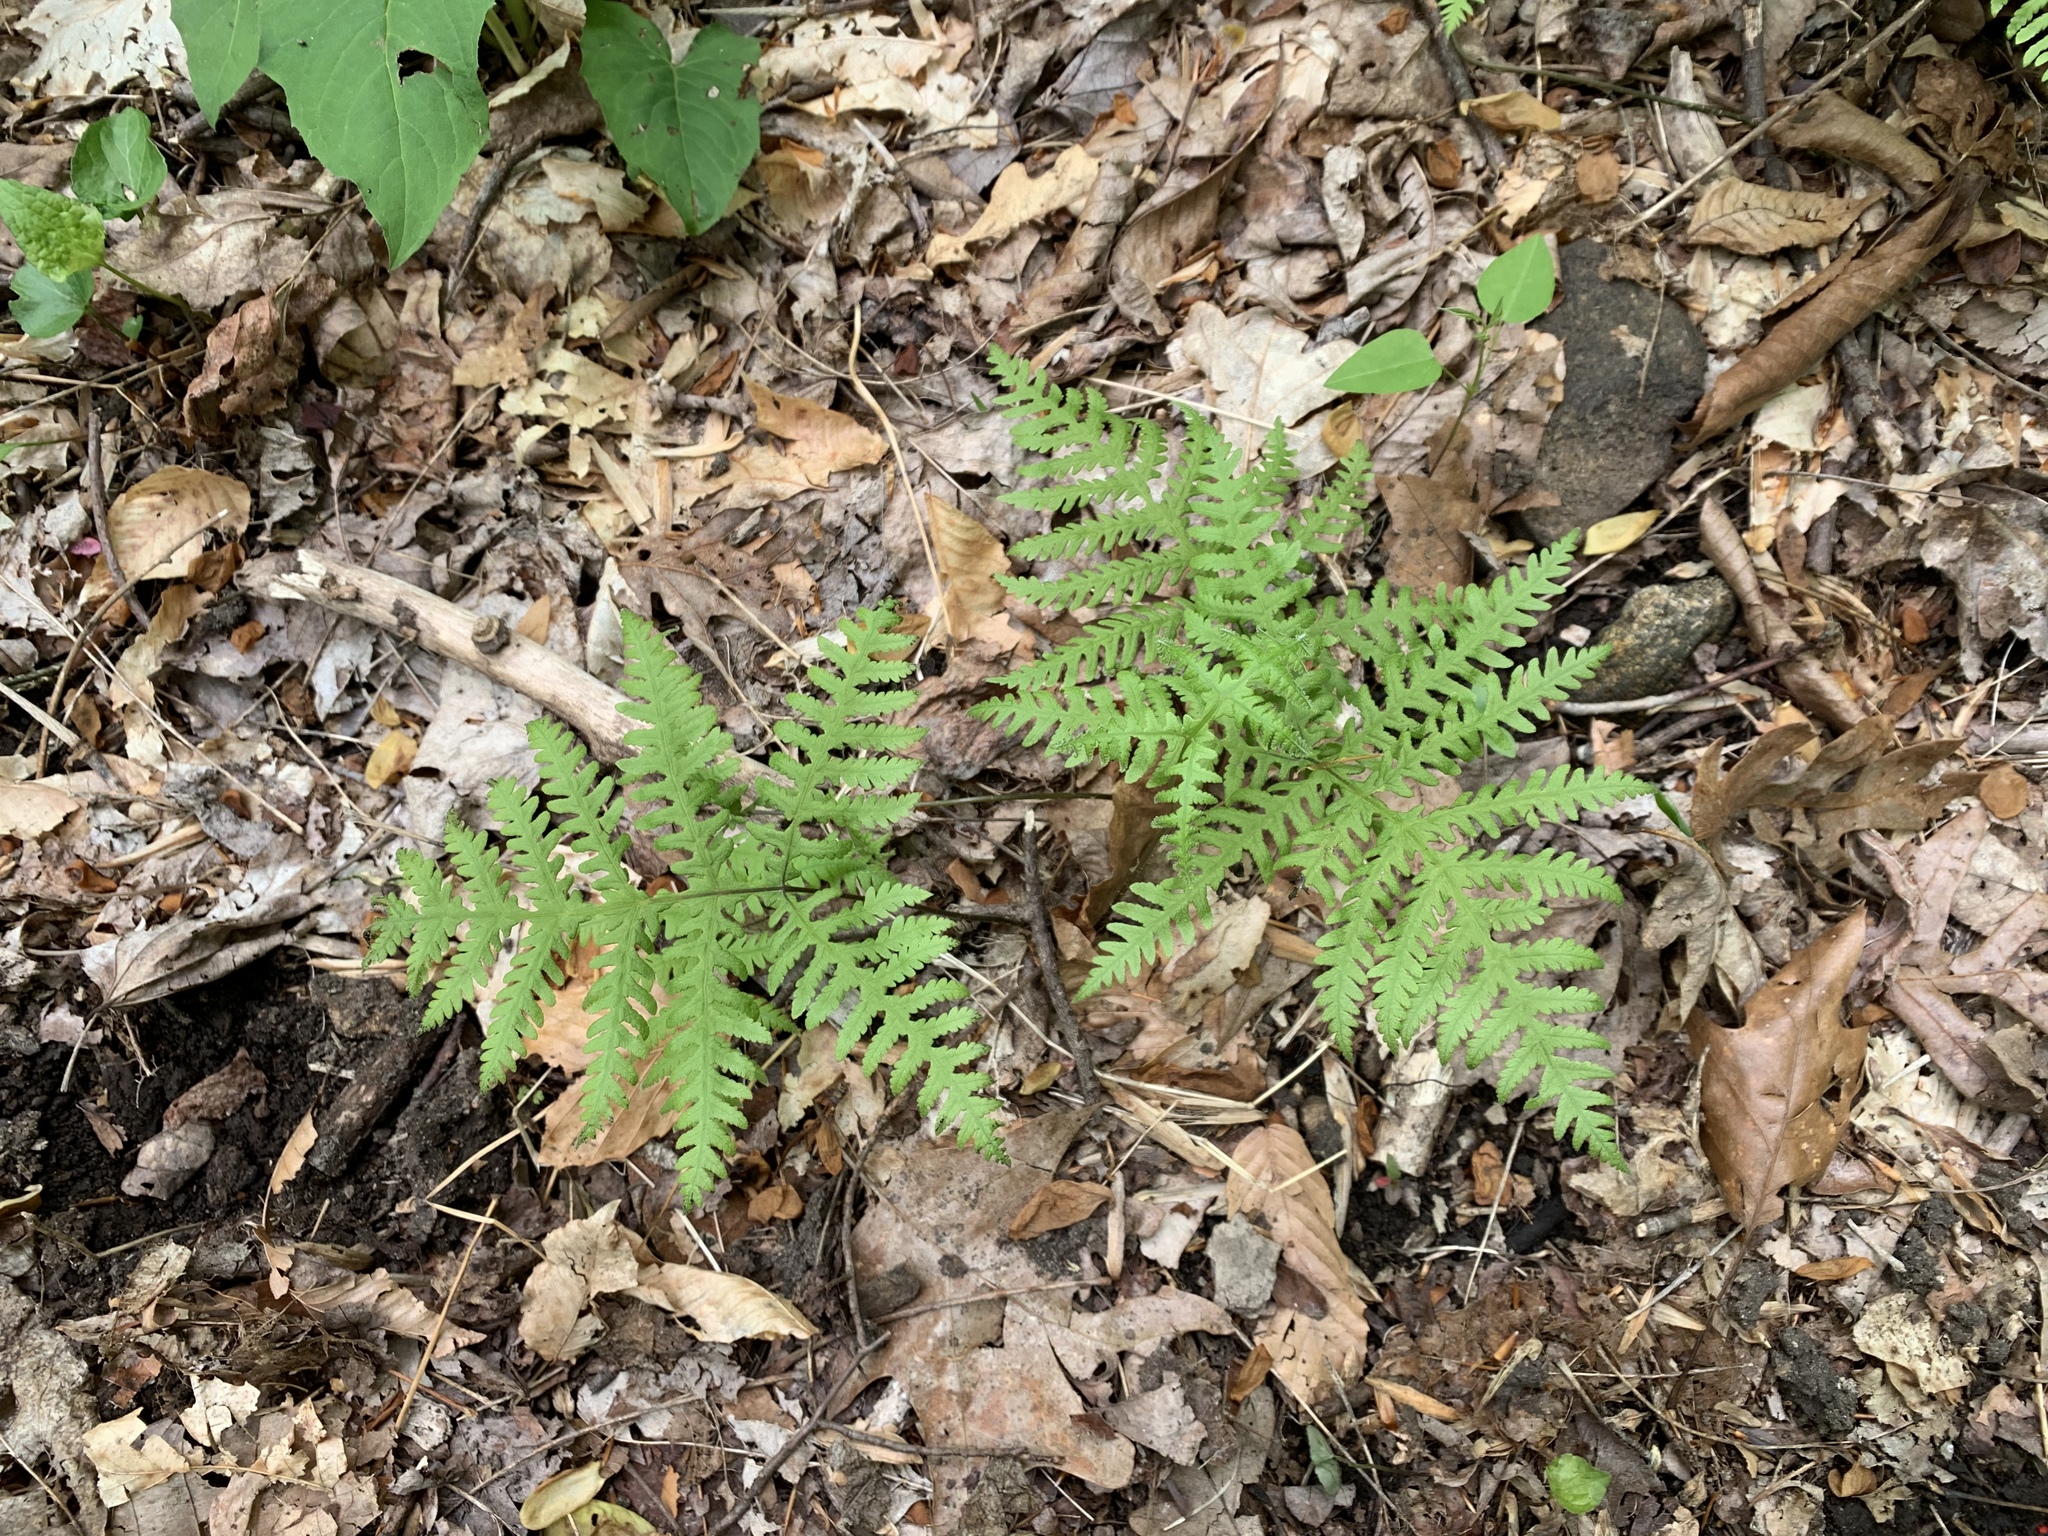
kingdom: Plantae
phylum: Tracheophyta
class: Polypodiopsida
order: Polypodiales
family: Thelypteridaceae
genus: Phegopteris
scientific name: Phegopteris hexagonoptera
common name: Broad beech fern
